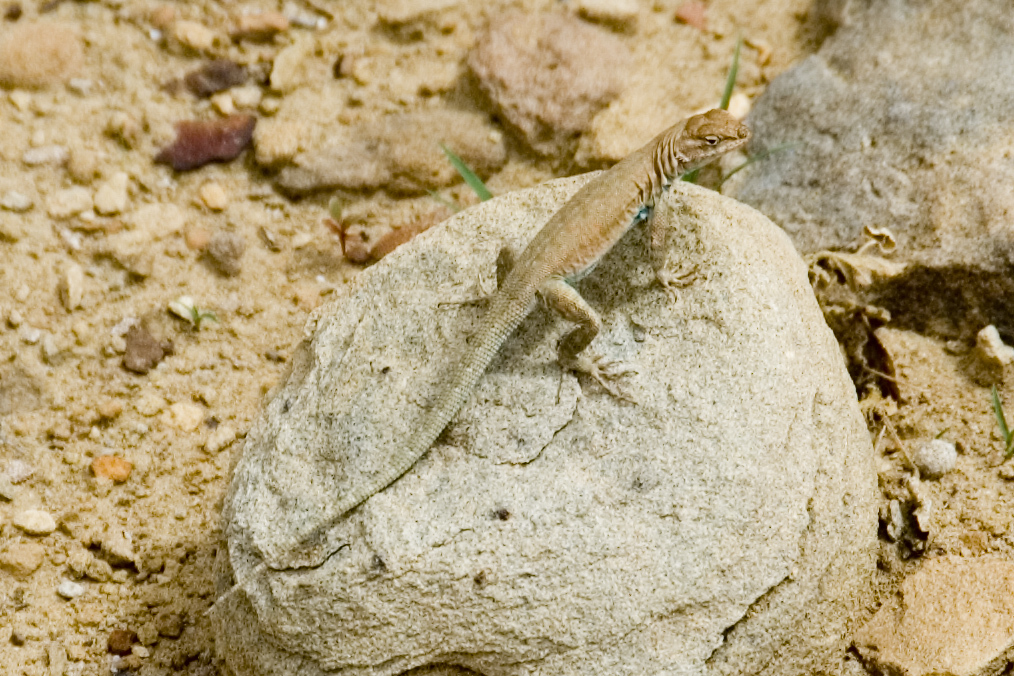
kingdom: Animalia
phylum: Chordata
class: Squamata
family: Phrynosomatidae
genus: Uta
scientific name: Uta stansburiana
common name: Side-blotched lizard
